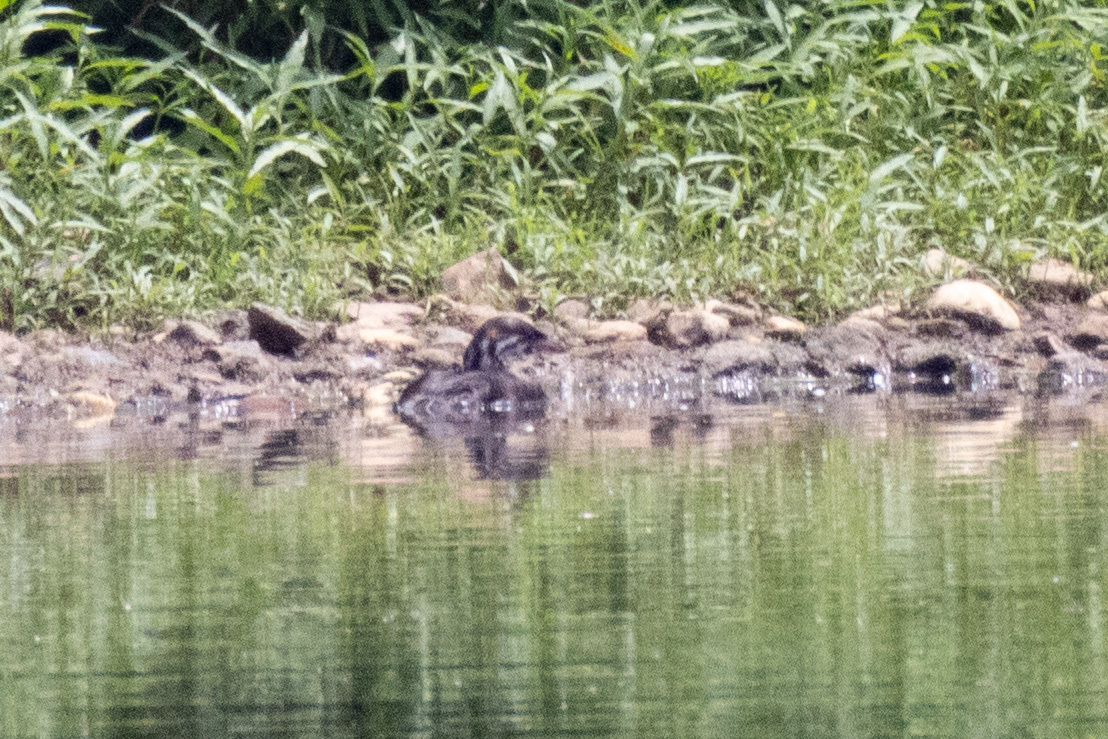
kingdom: Animalia
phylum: Chordata
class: Aves
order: Podicipediformes
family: Podicipedidae
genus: Podilymbus
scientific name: Podilymbus podiceps
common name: Pied-billed grebe
